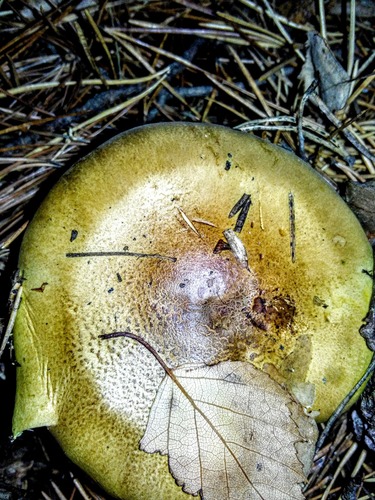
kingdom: Fungi
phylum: Basidiomycota
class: Agaricomycetes
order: Agaricales
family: Tricholomataceae
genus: Tricholoma
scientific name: Tricholoma equestre
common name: Yellow knight
